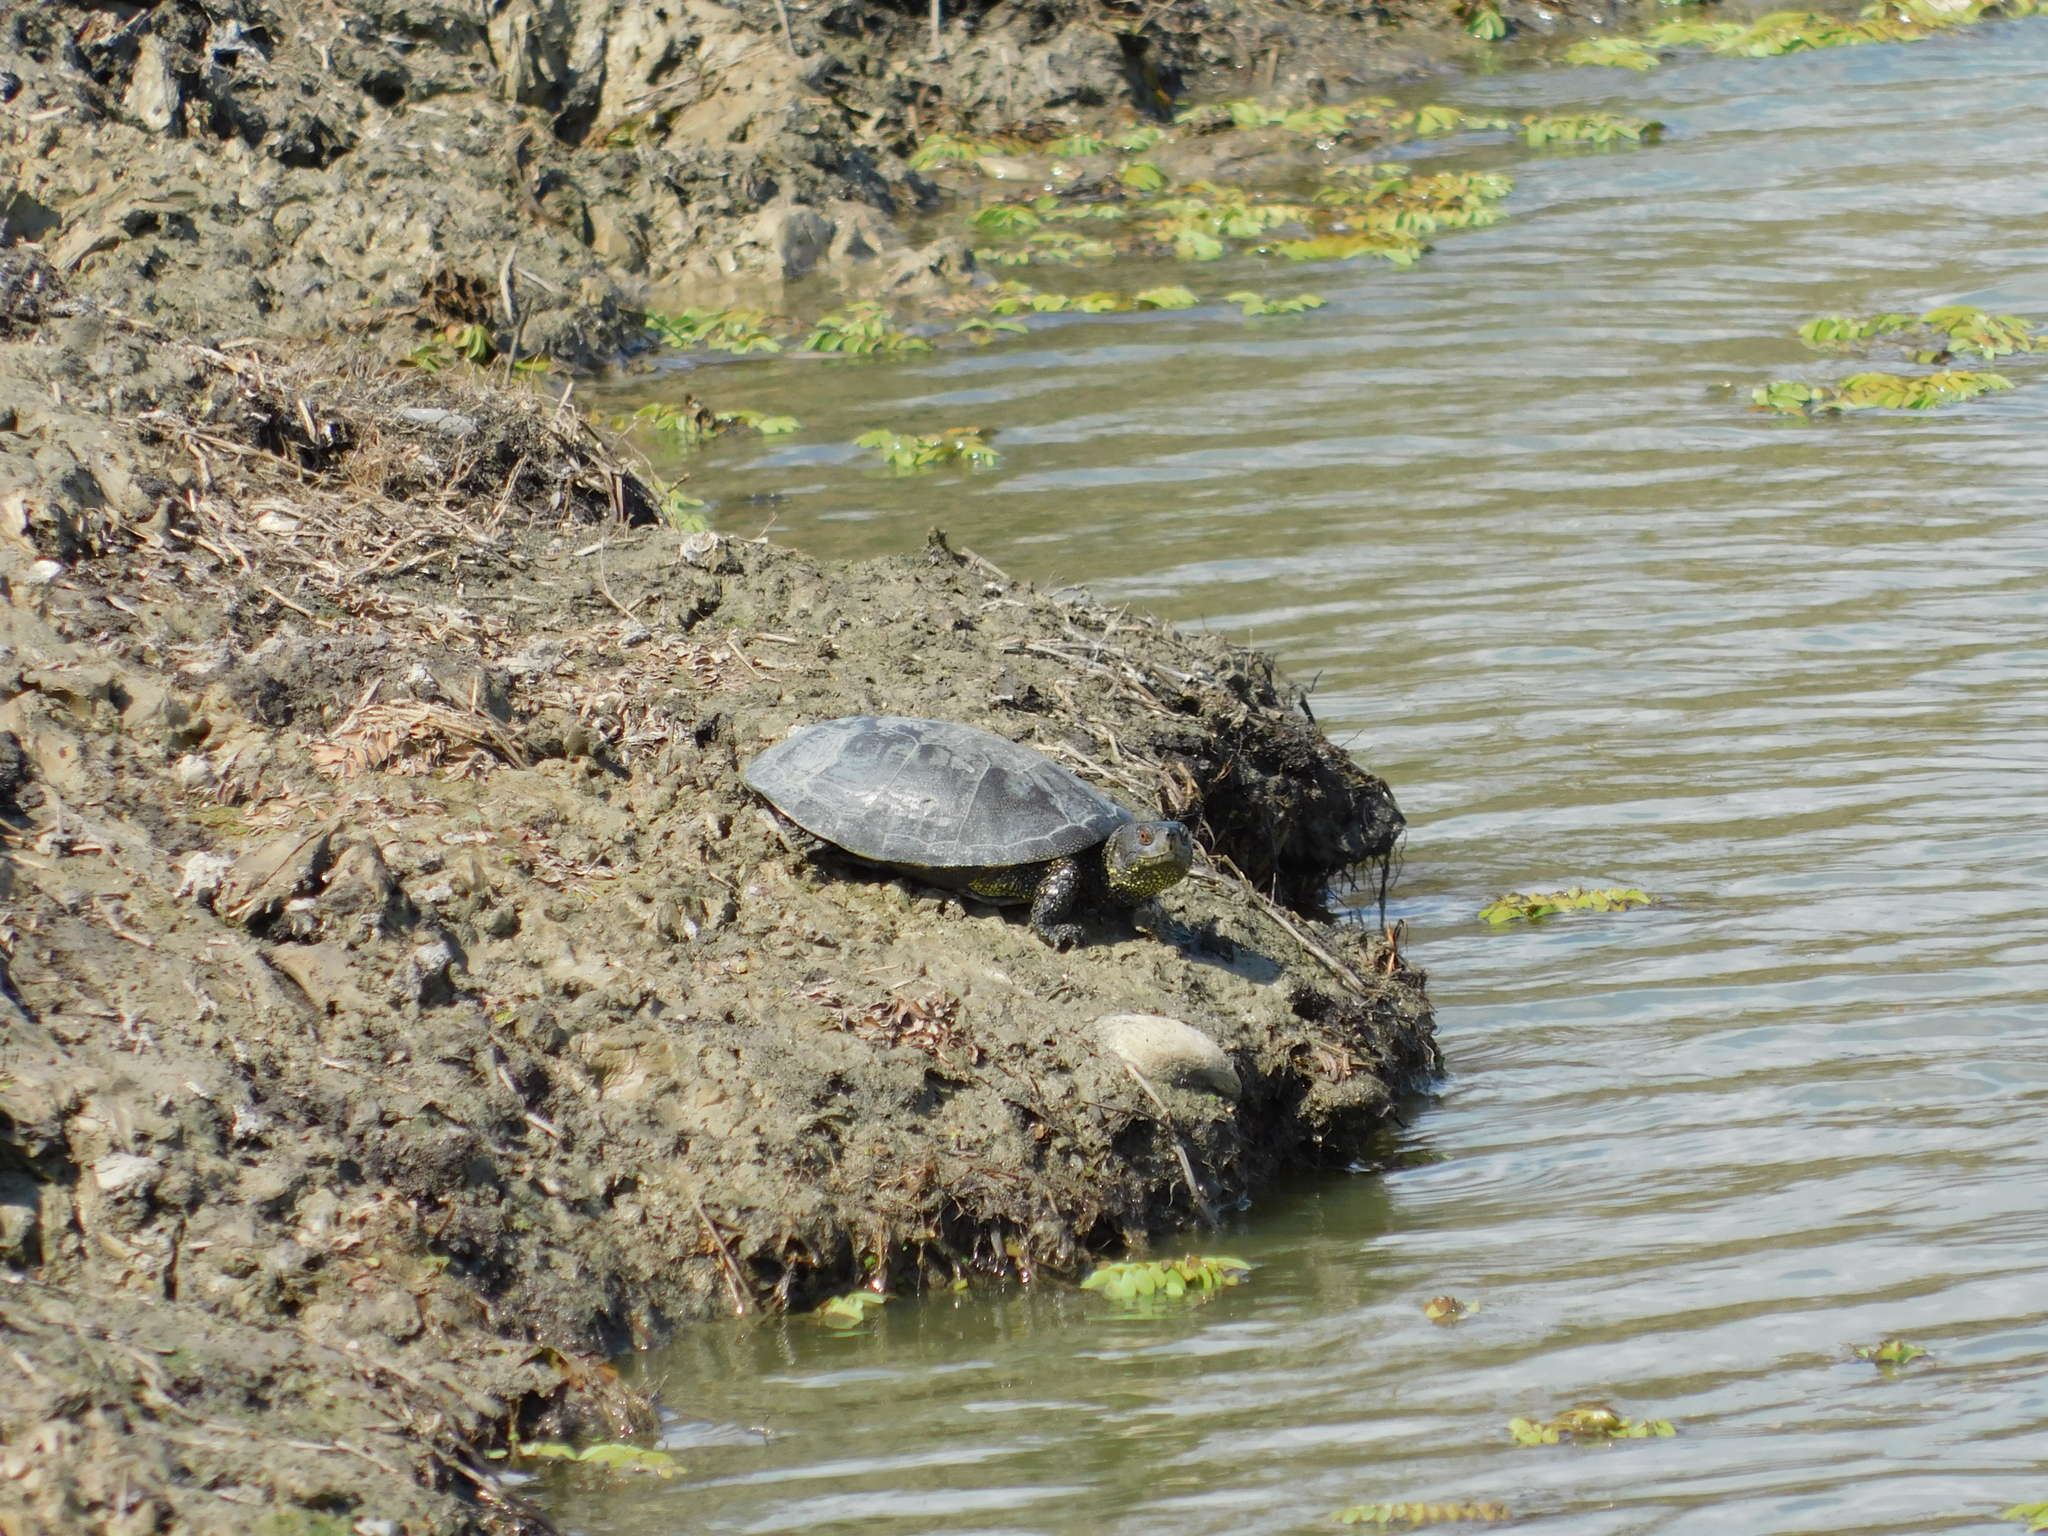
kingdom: Animalia
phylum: Chordata
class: Testudines
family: Emydidae
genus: Emys
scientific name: Emys orbicularis
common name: European pond turtle
